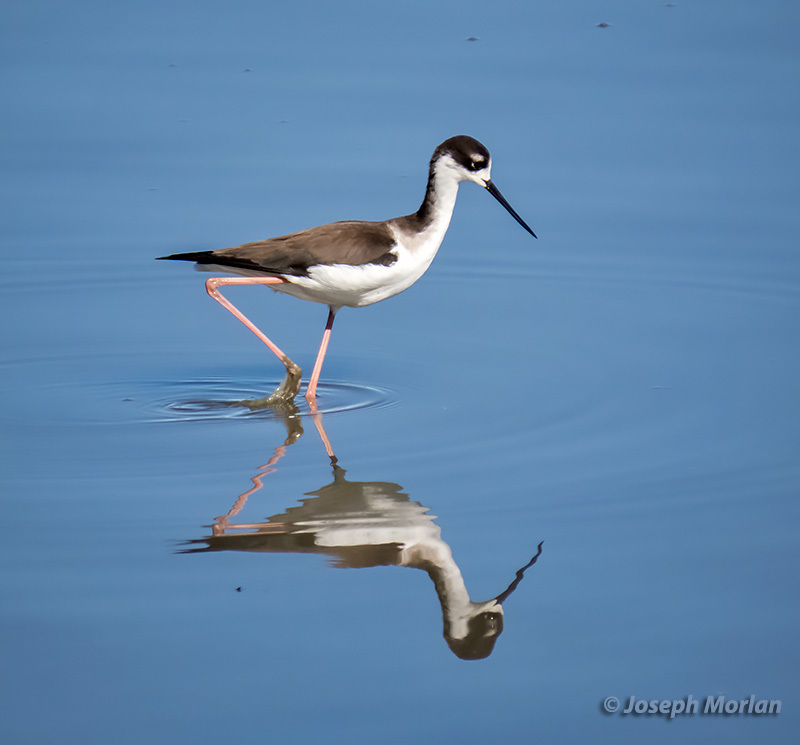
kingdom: Animalia
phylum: Chordata
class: Aves
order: Charadriiformes
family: Recurvirostridae
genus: Himantopus
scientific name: Himantopus mexicanus
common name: Black-necked stilt
